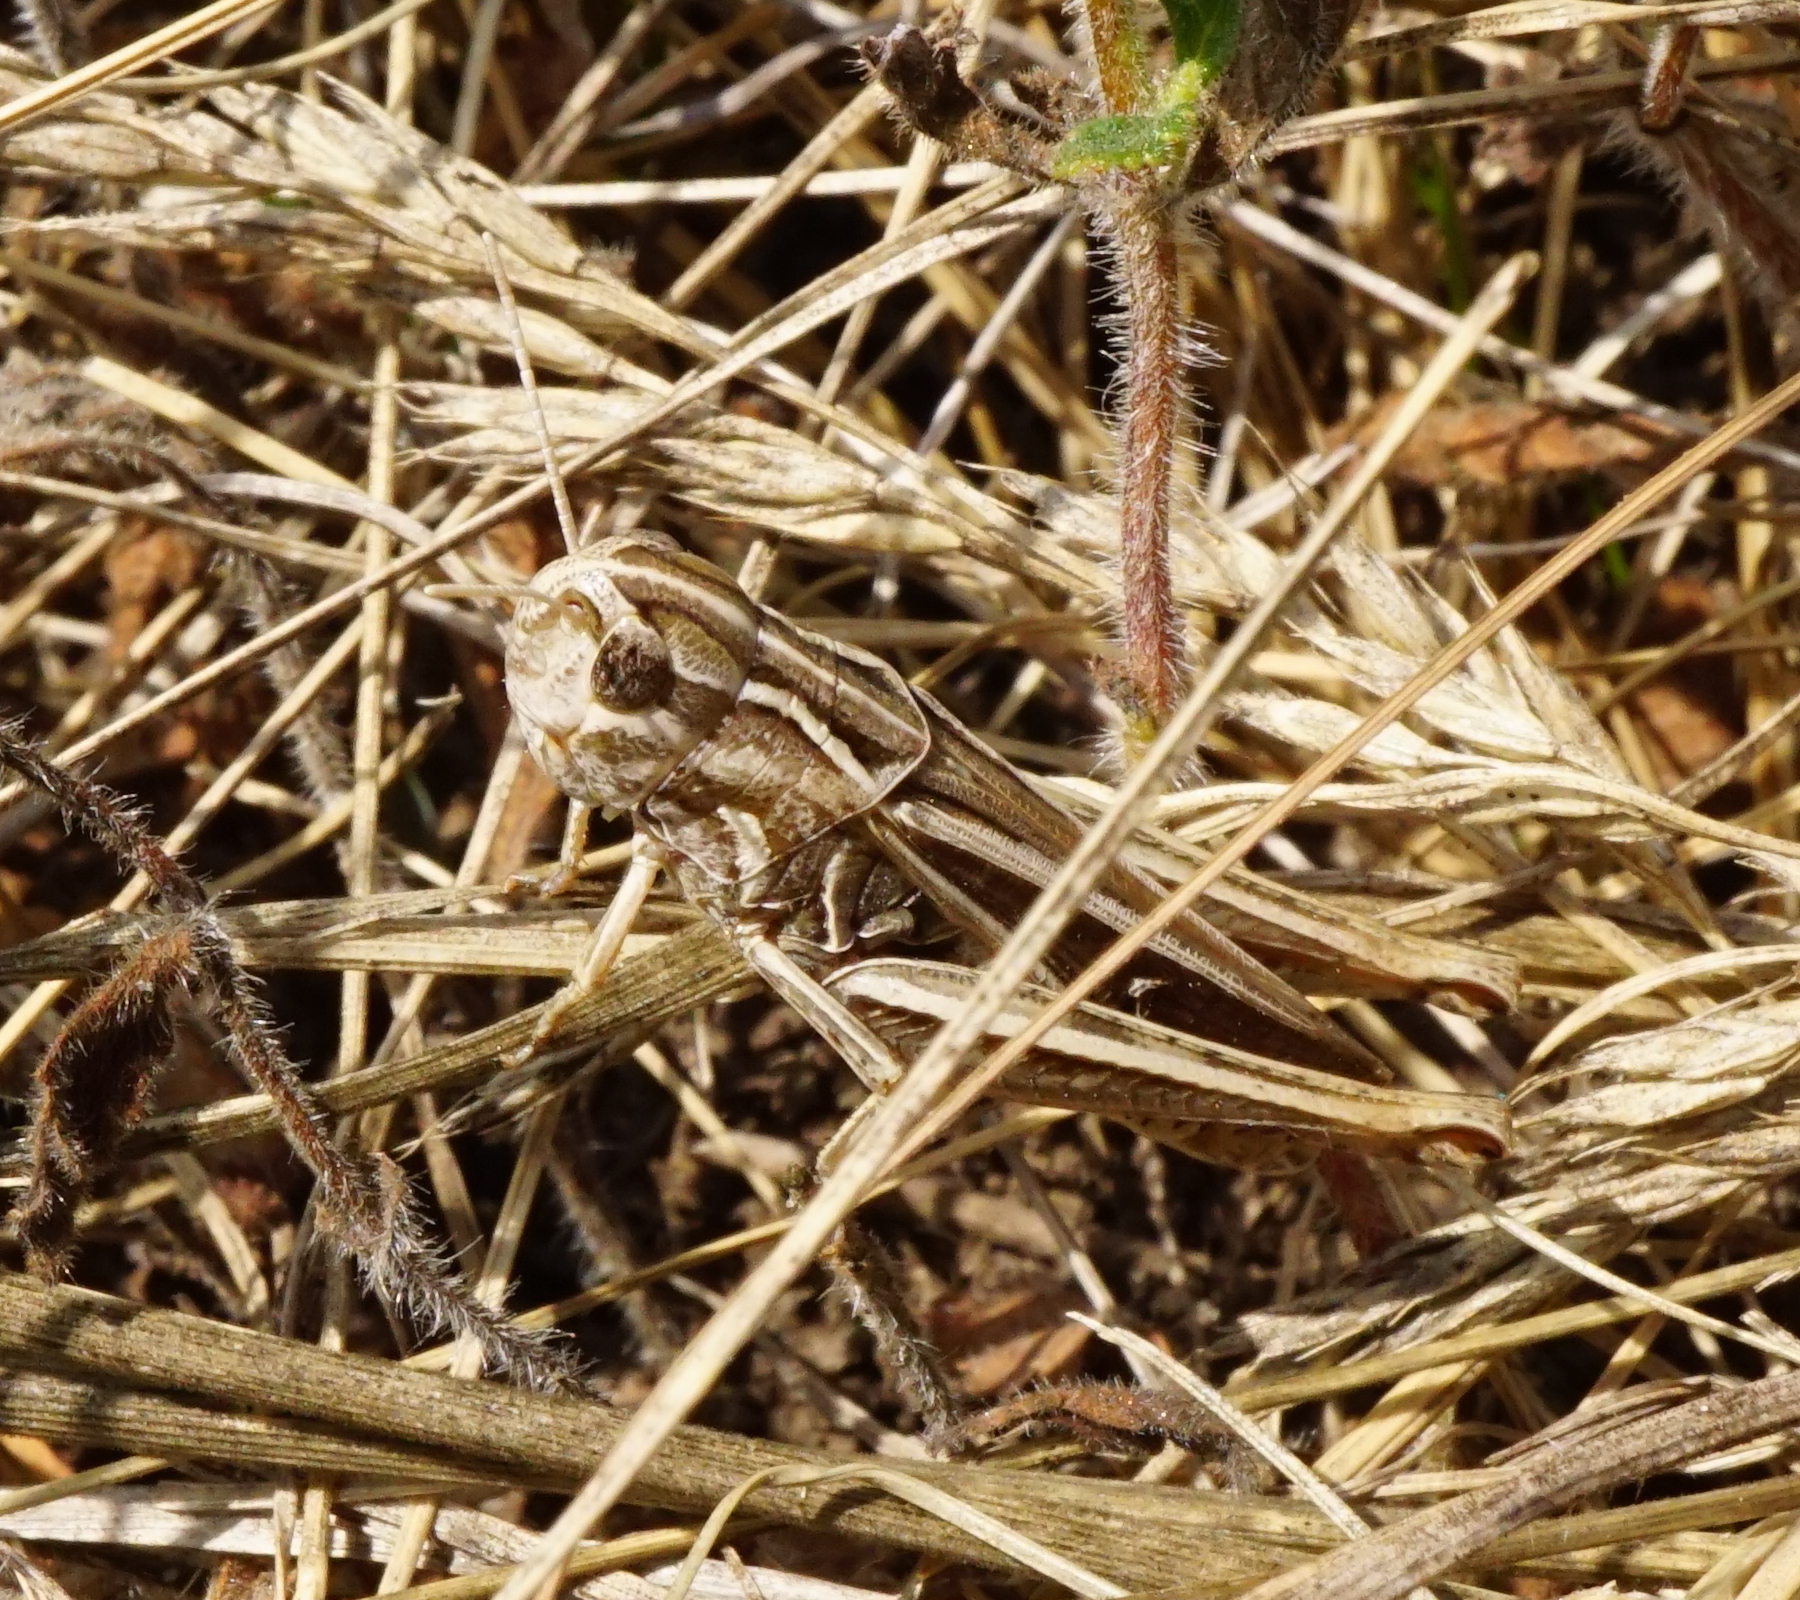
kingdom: Animalia
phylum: Arthropoda
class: Insecta
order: Orthoptera
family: Acrididae
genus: Stenobothrus
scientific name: Stenobothrus lineatus
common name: Stripe-winged grasshopper
